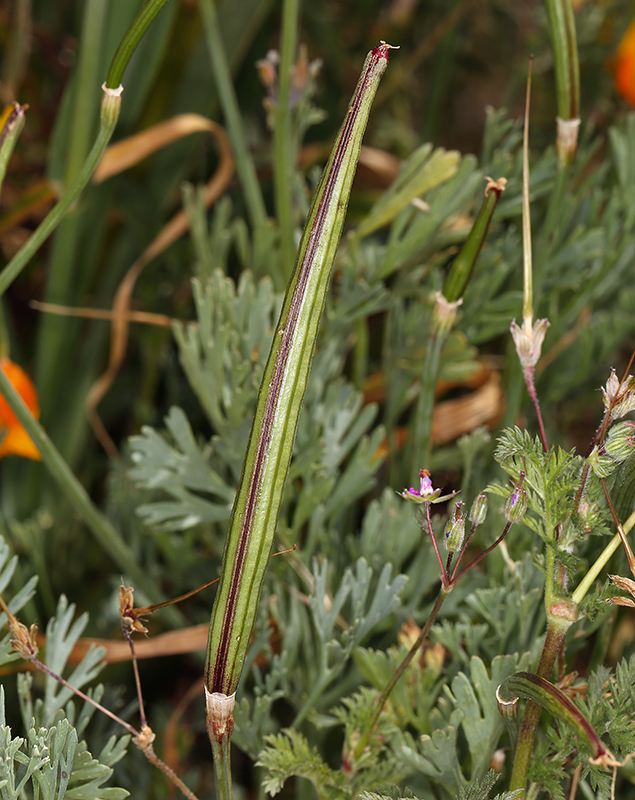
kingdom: Plantae
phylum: Tracheophyta
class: Magnoliopsida
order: Ranunculales
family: Papaveraceae
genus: Eschscholzia
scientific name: Eschscholzia lemmonii
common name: Lemmon's poppy
